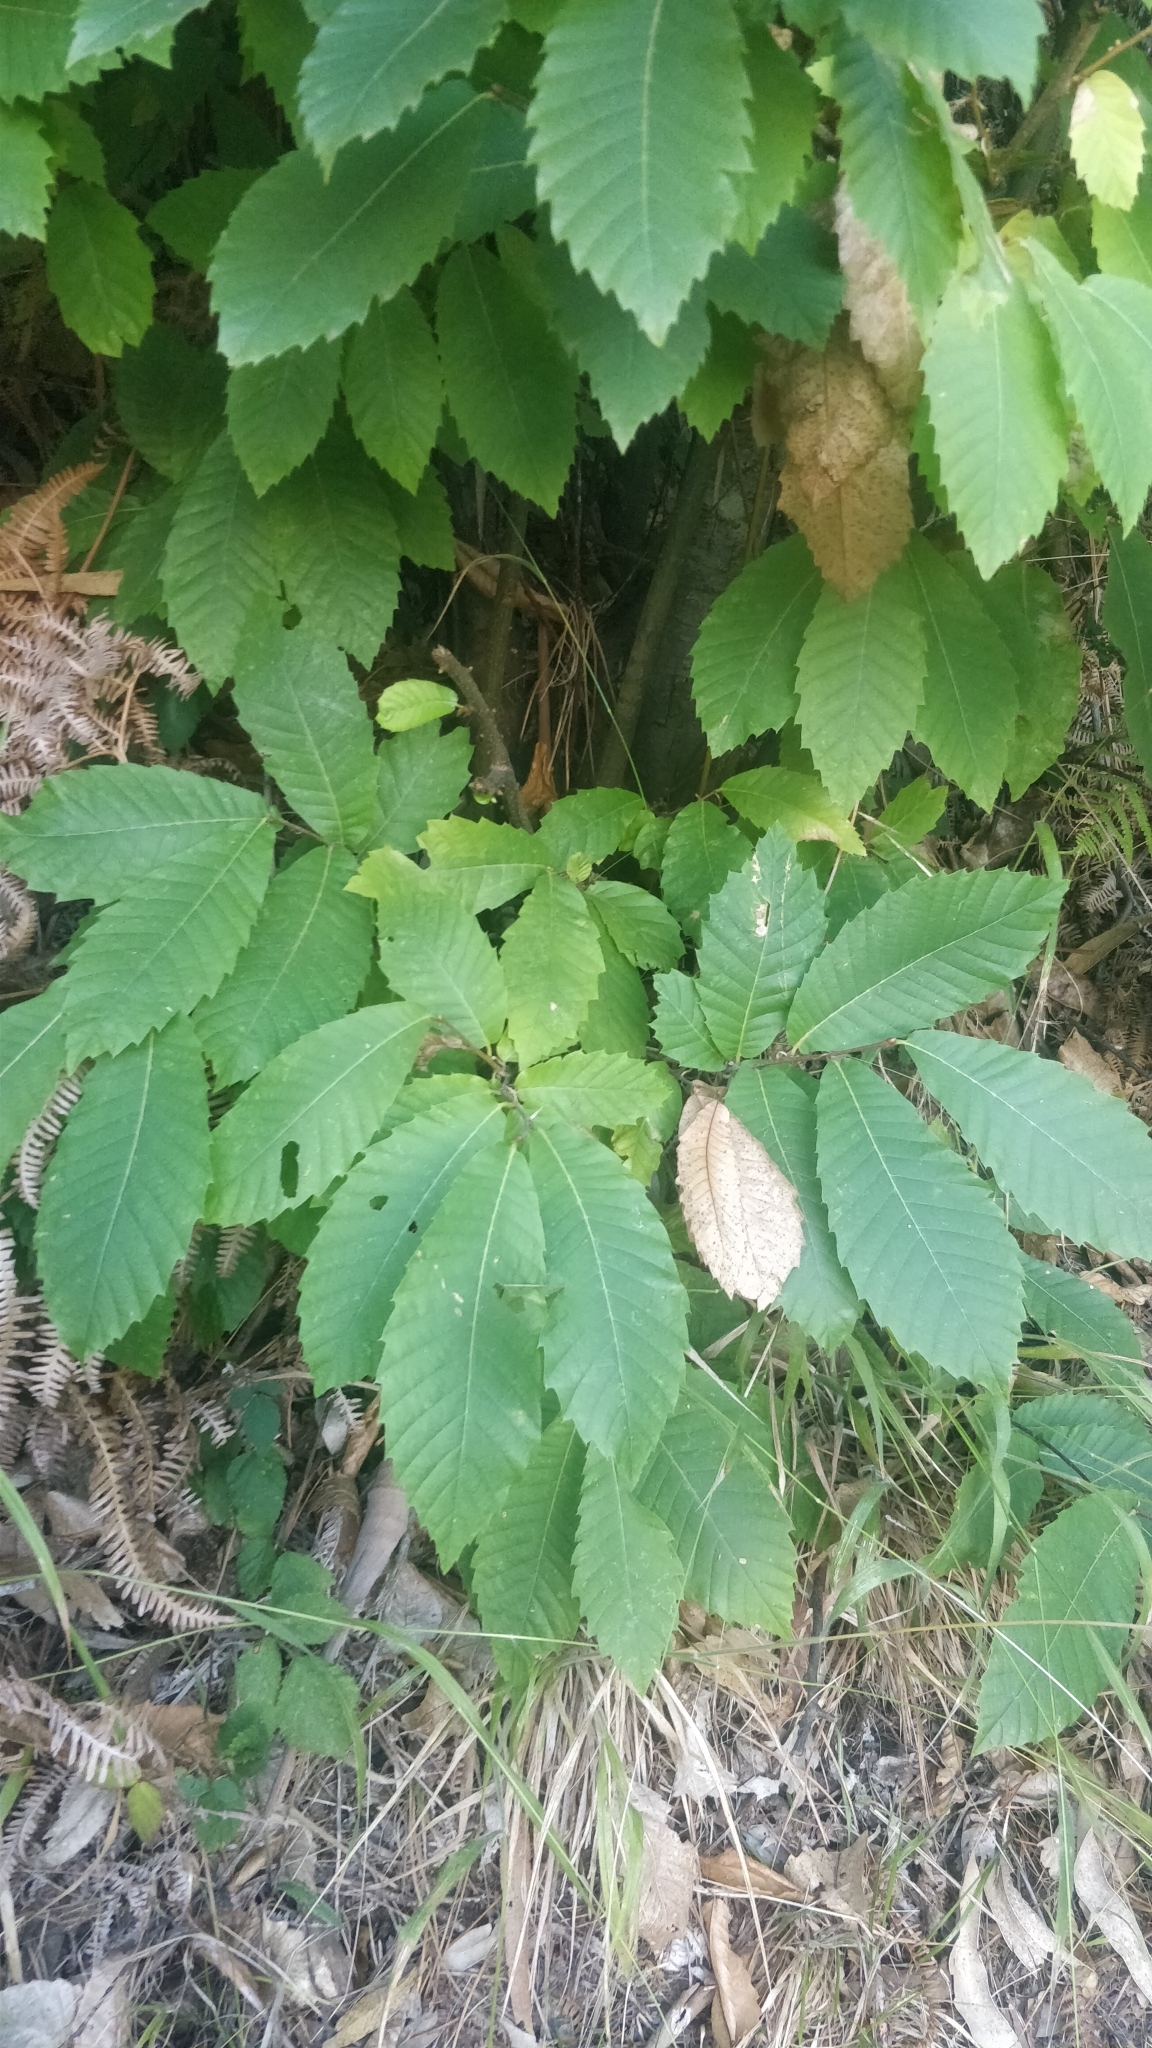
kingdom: Plantae
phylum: Tracheophyta
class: Magnoliopsida
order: Fagales
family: Fagaceae
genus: Castanea
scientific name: Castanea sativa
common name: Sweet chestnut
